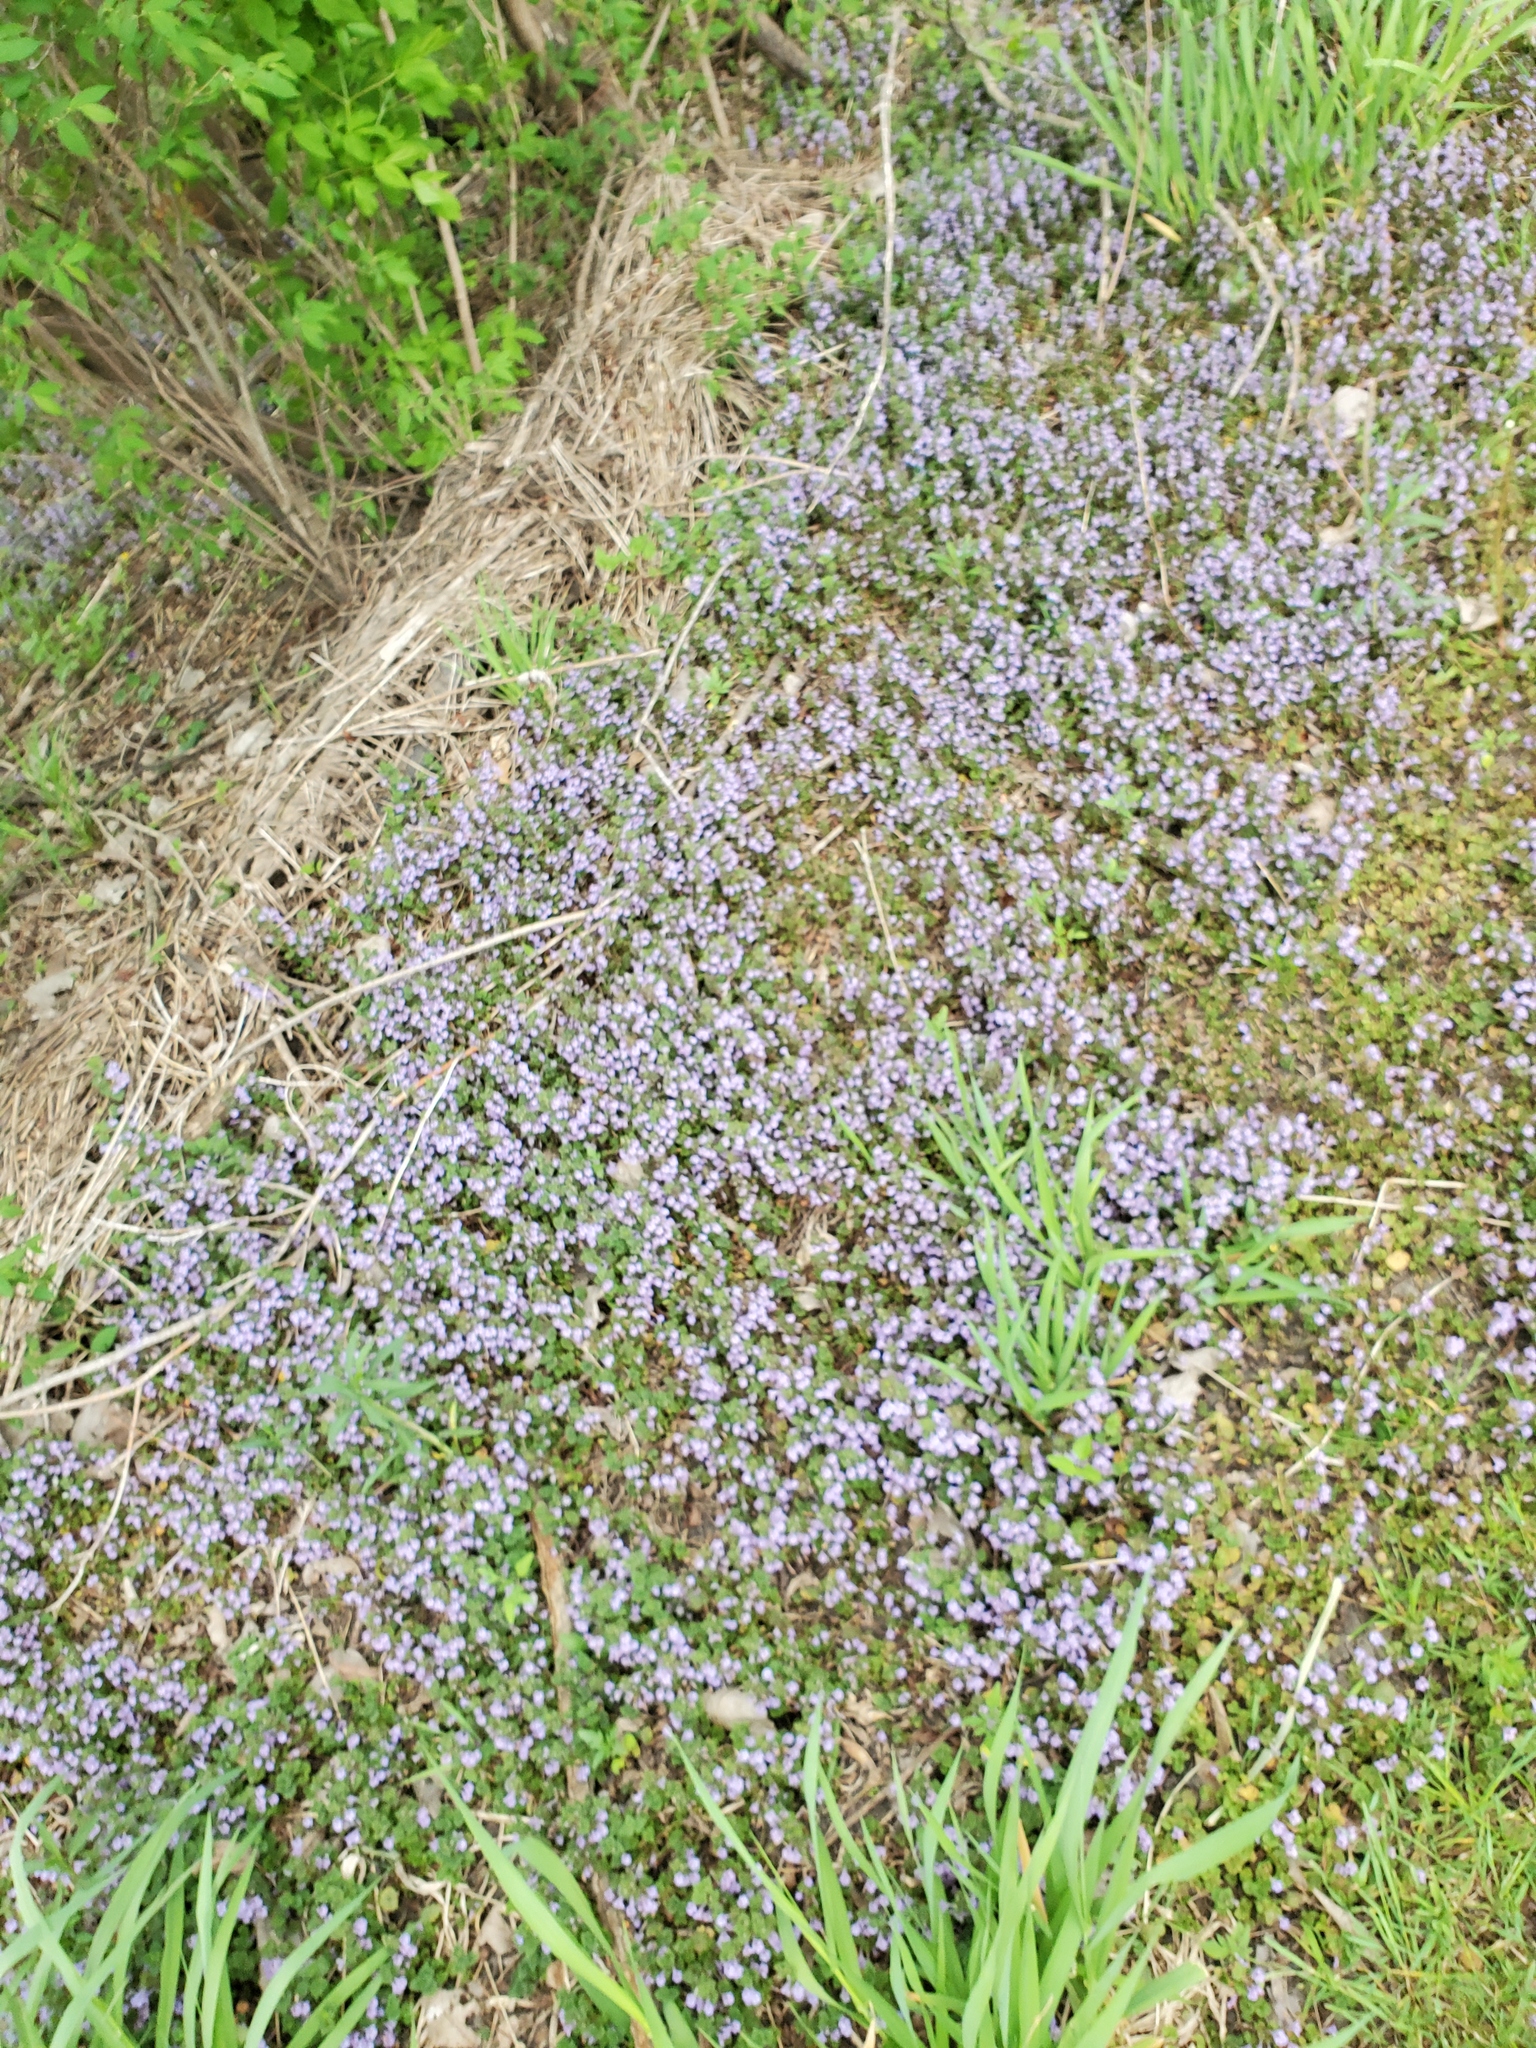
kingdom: Plantae
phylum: Tracheophyta
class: Magnoliopsida
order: Lamiales
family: Lamiaceae
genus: Glechoma
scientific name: Glechoma hederacea
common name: Ground ivy
